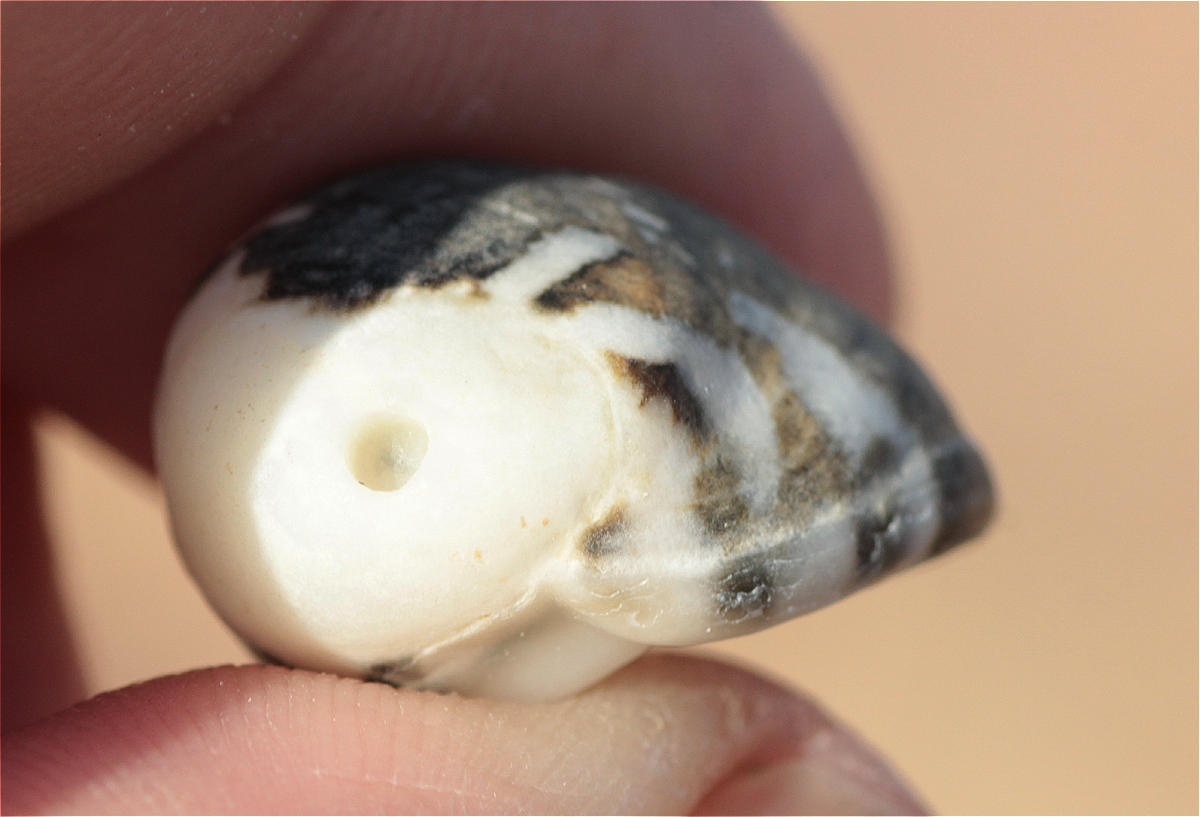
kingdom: Animalia
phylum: Mollusca
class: Gastropoda
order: Cycloneritida
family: Neritidae
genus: Nerita
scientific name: Nerita albicilla
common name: Blotched nerite
